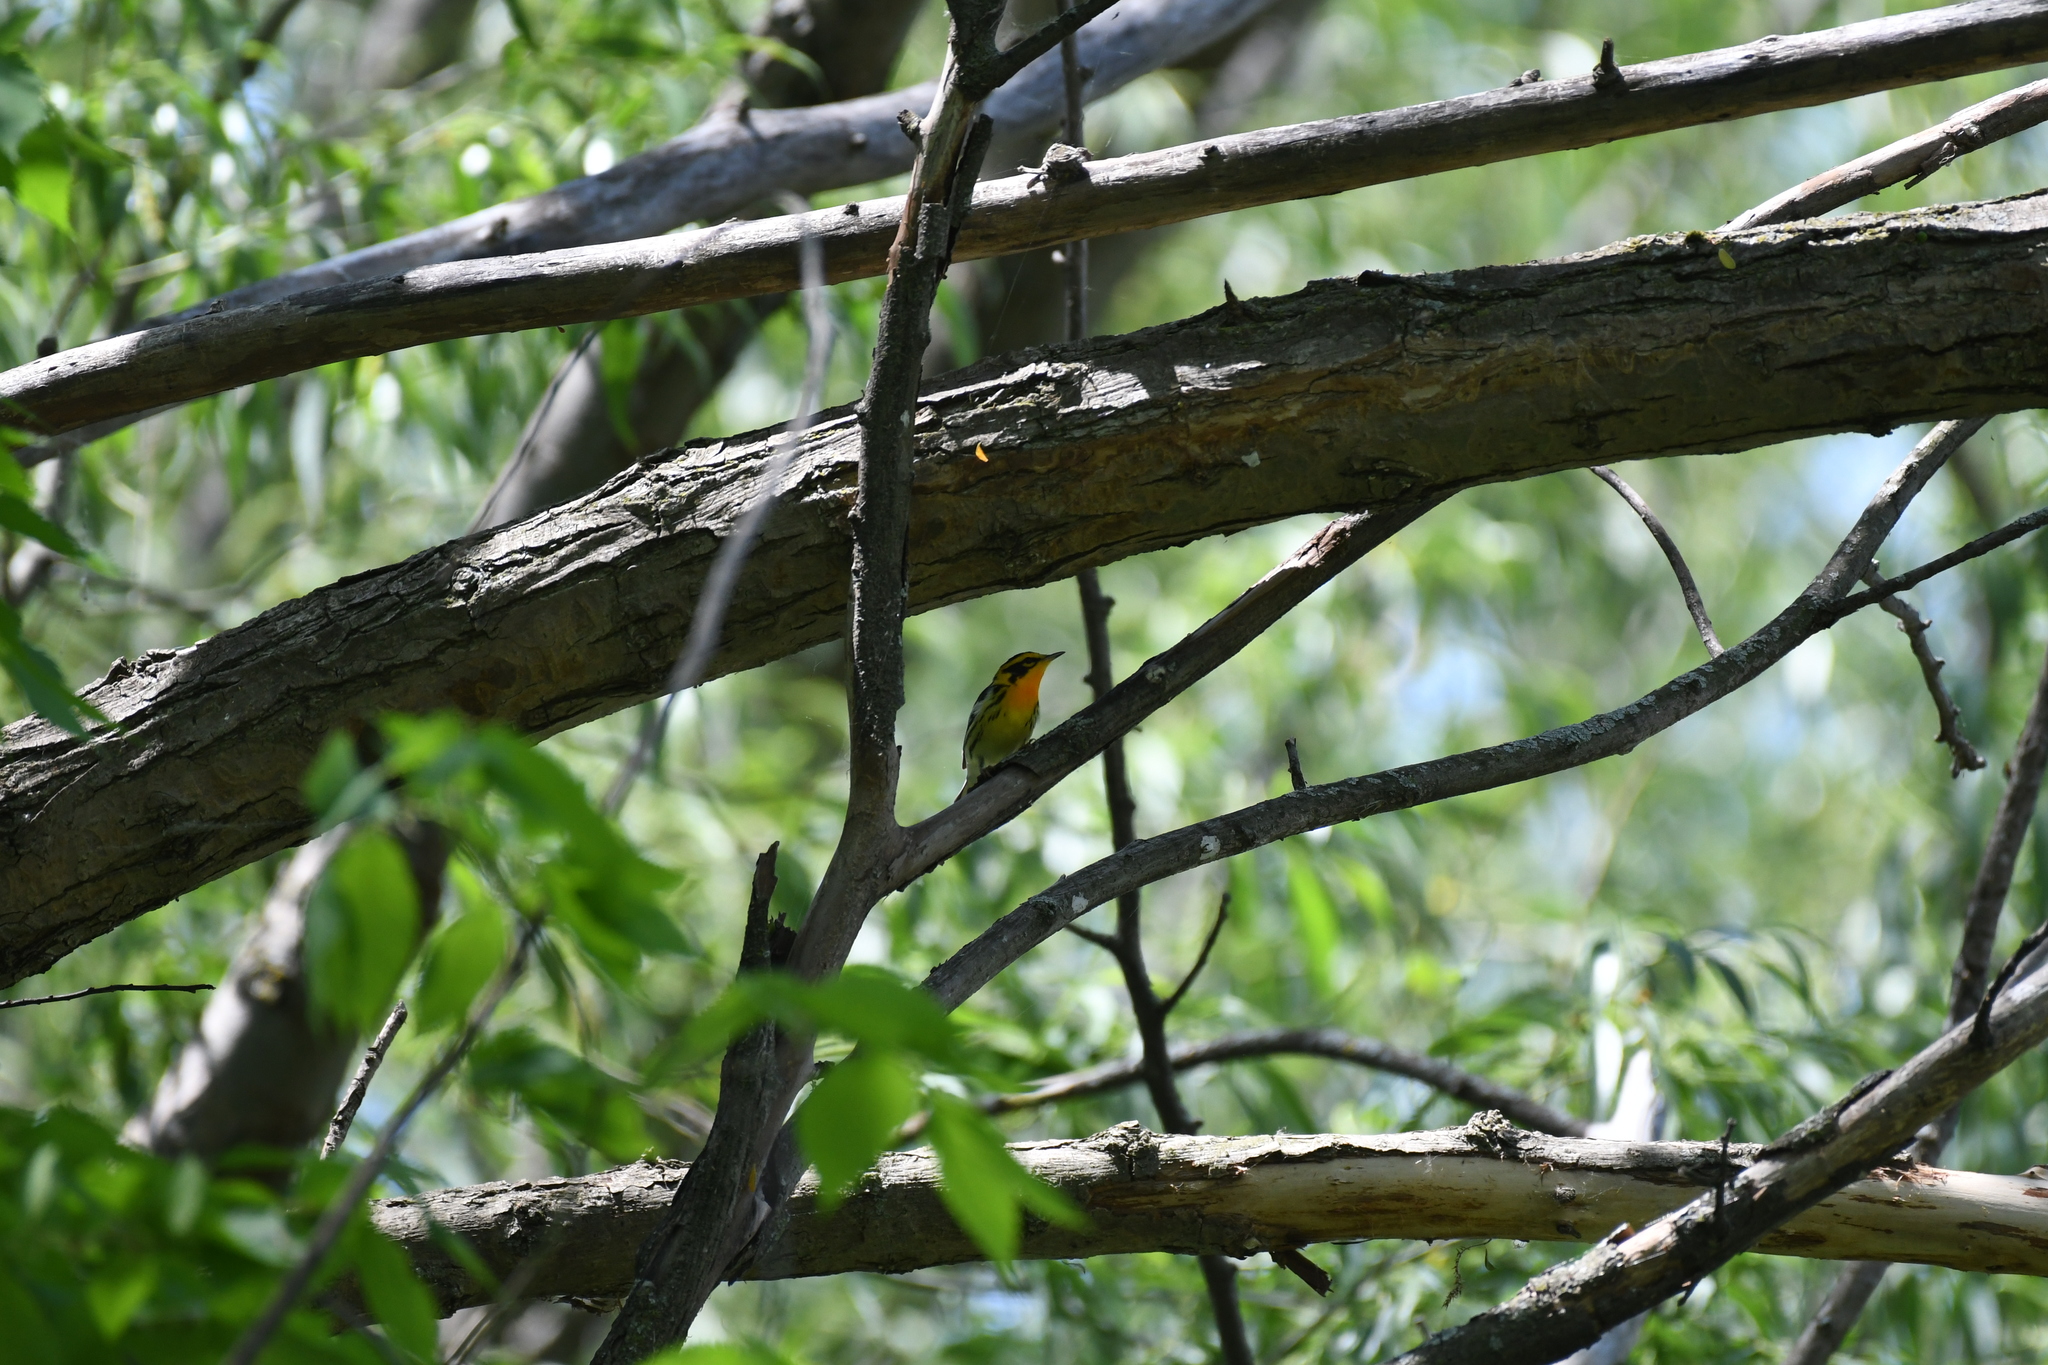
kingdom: Animalia
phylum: Chordata
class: Aves
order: Passeriformes
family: Parulidae
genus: Setophaga
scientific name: Setophaga fusca
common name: Blackburnian warbler
